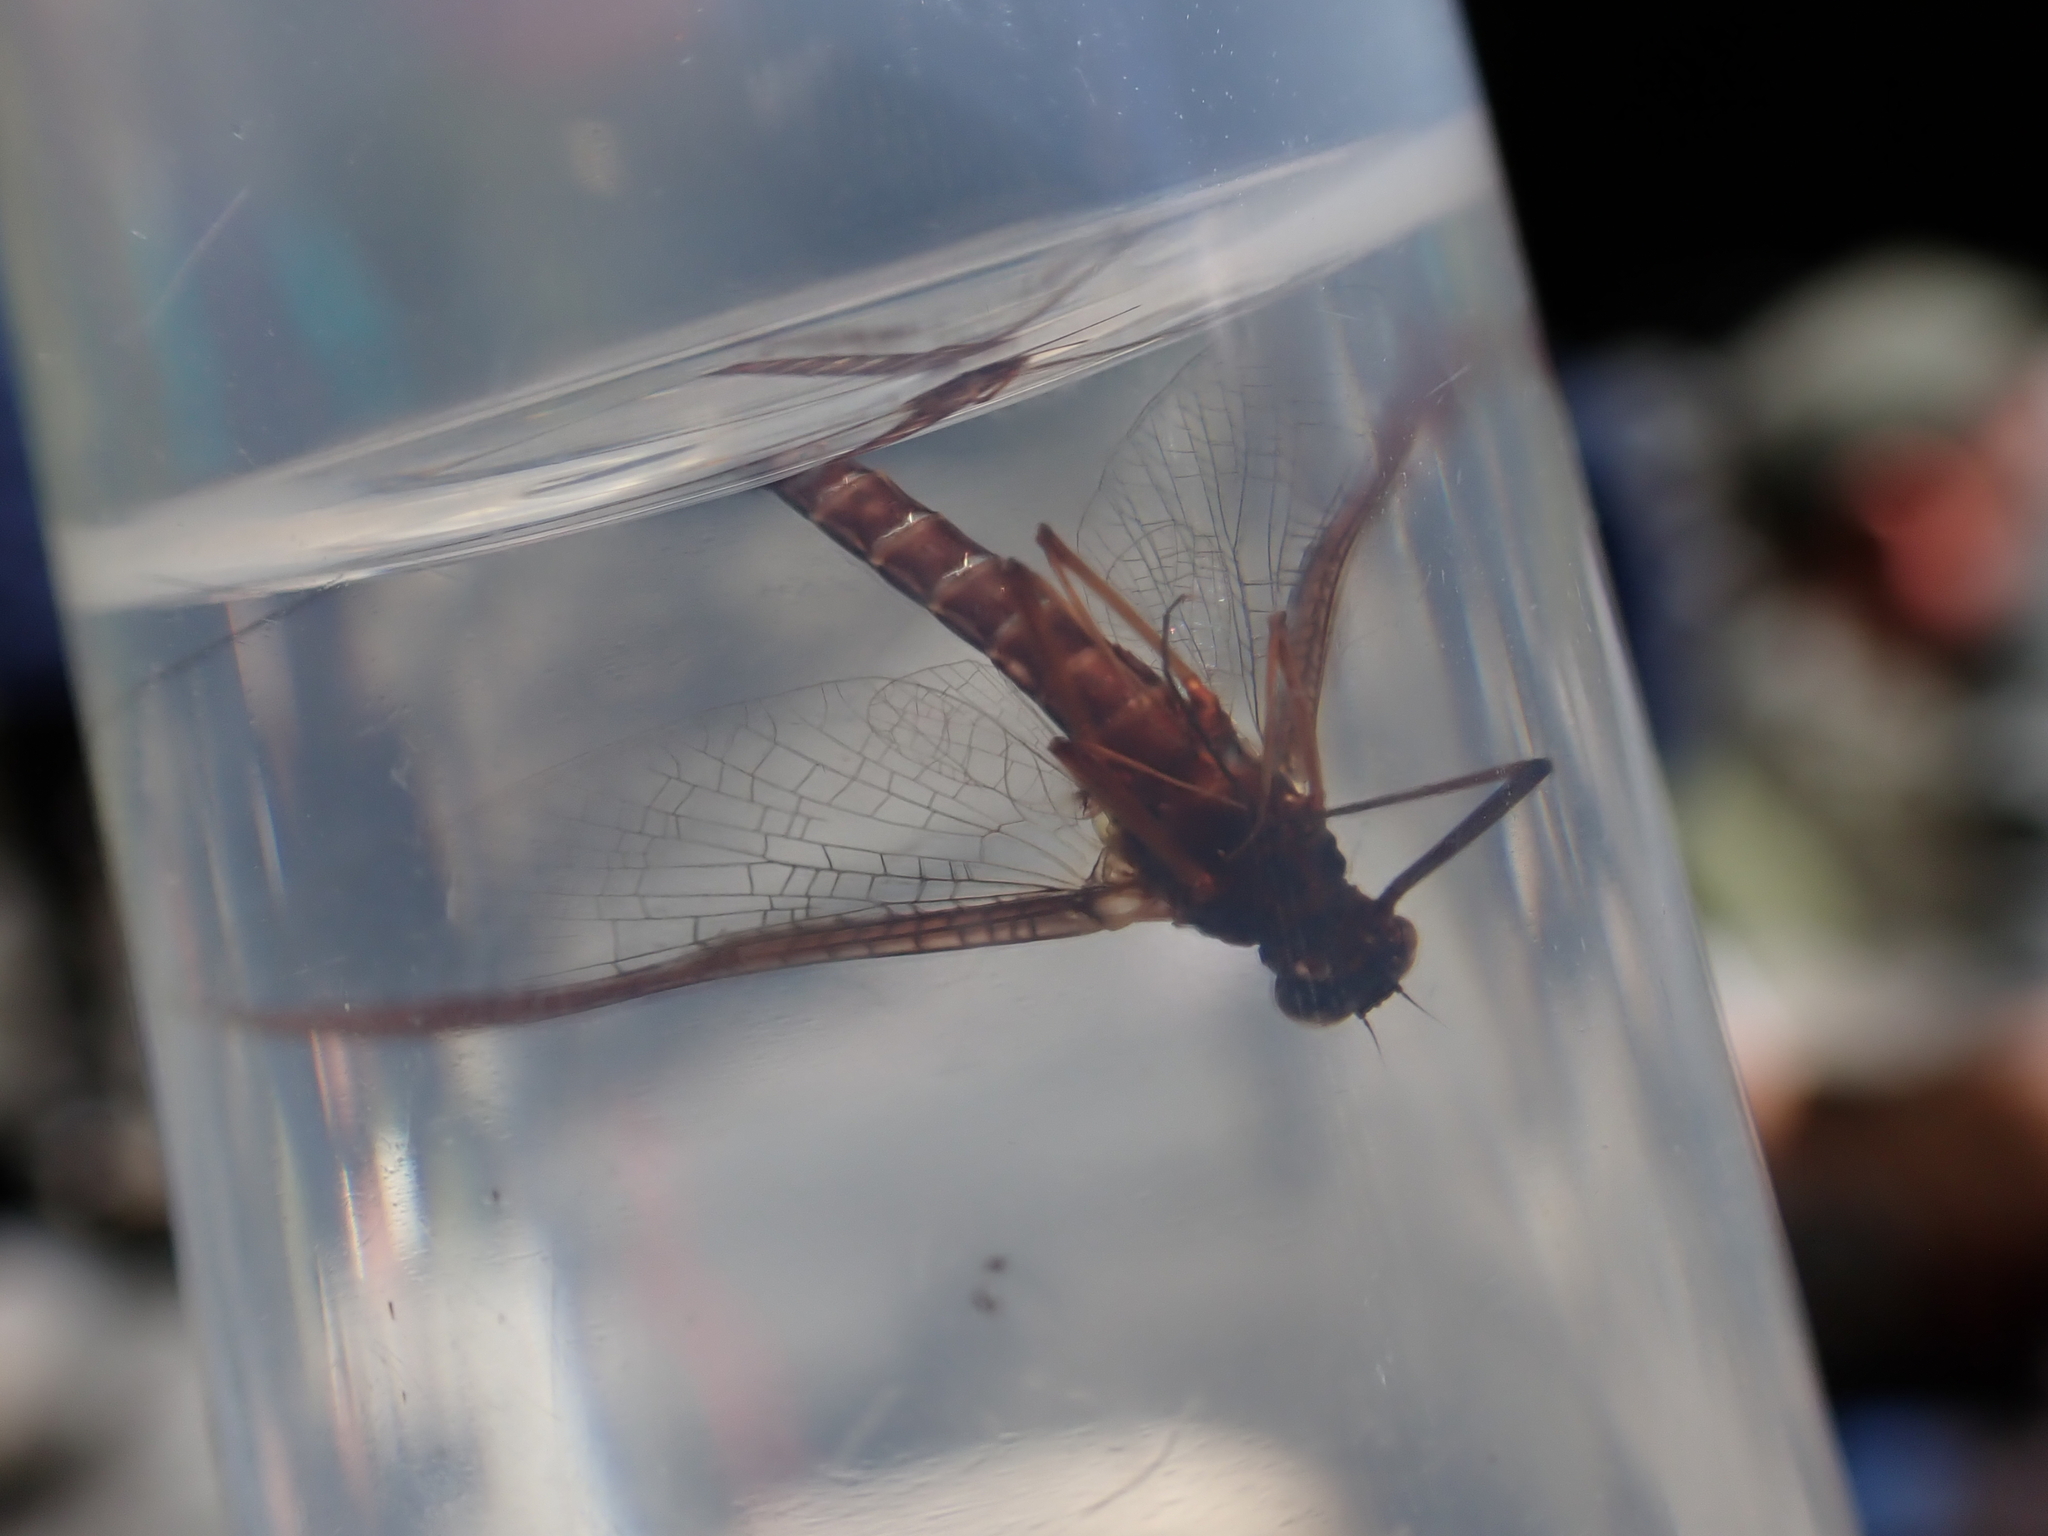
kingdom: Animalia
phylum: Arthropoda
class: Insecta
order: Ephemeroptera
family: Leptophlebiidae
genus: Deleatidium
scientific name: Deleatidium magnum
